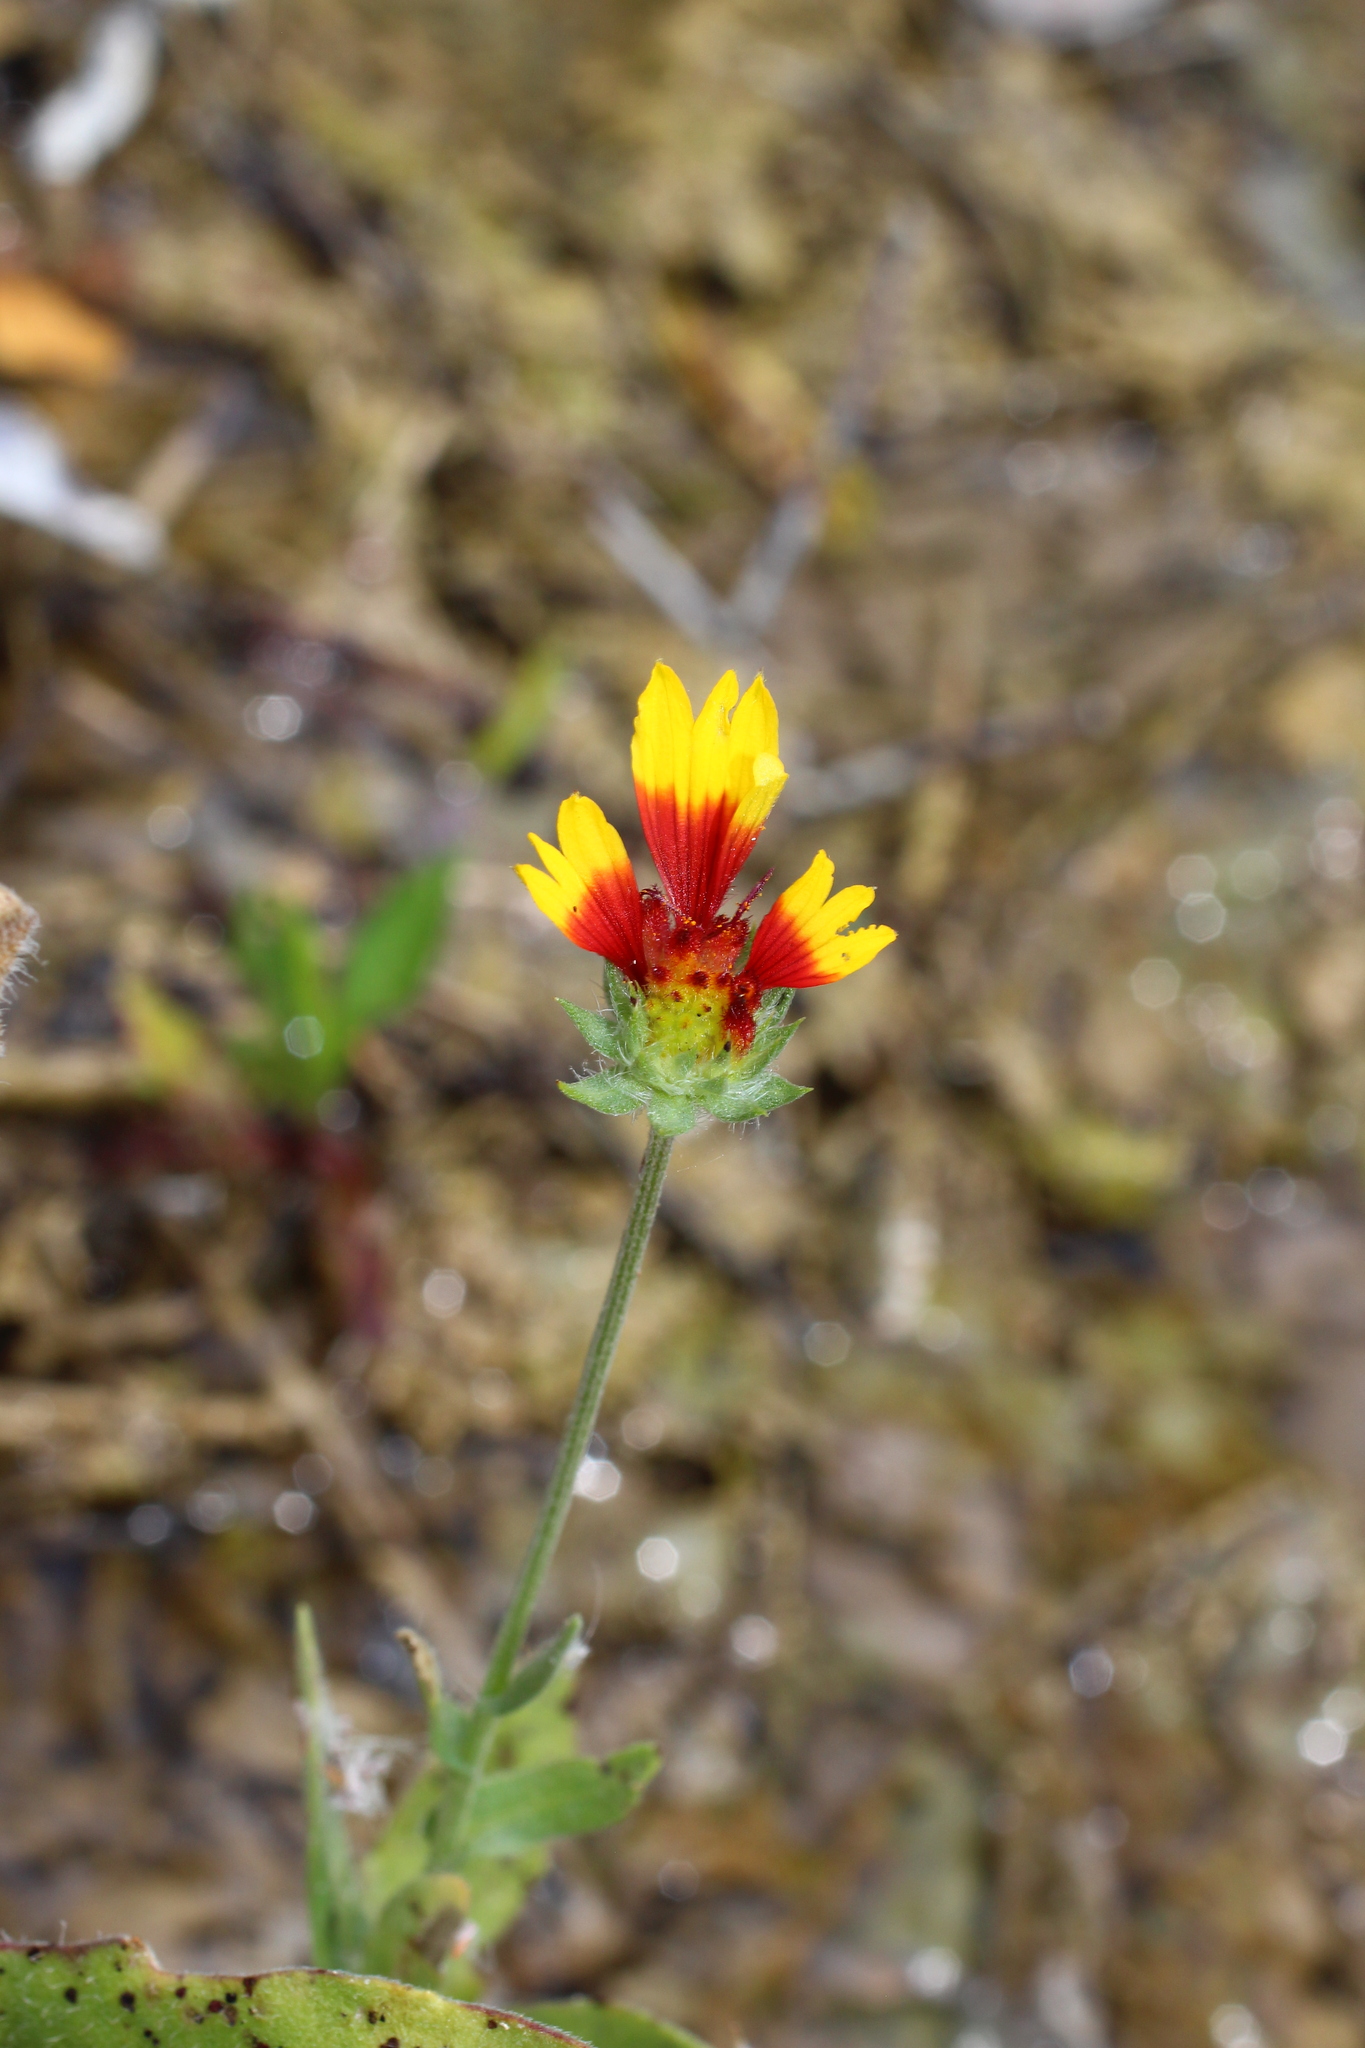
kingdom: Plantae
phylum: Tracheophyta
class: Magnoliopsida
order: Asterales
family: Asteraceae
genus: Gaillardia
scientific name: Gaillardia pulchella
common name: Firewheel
